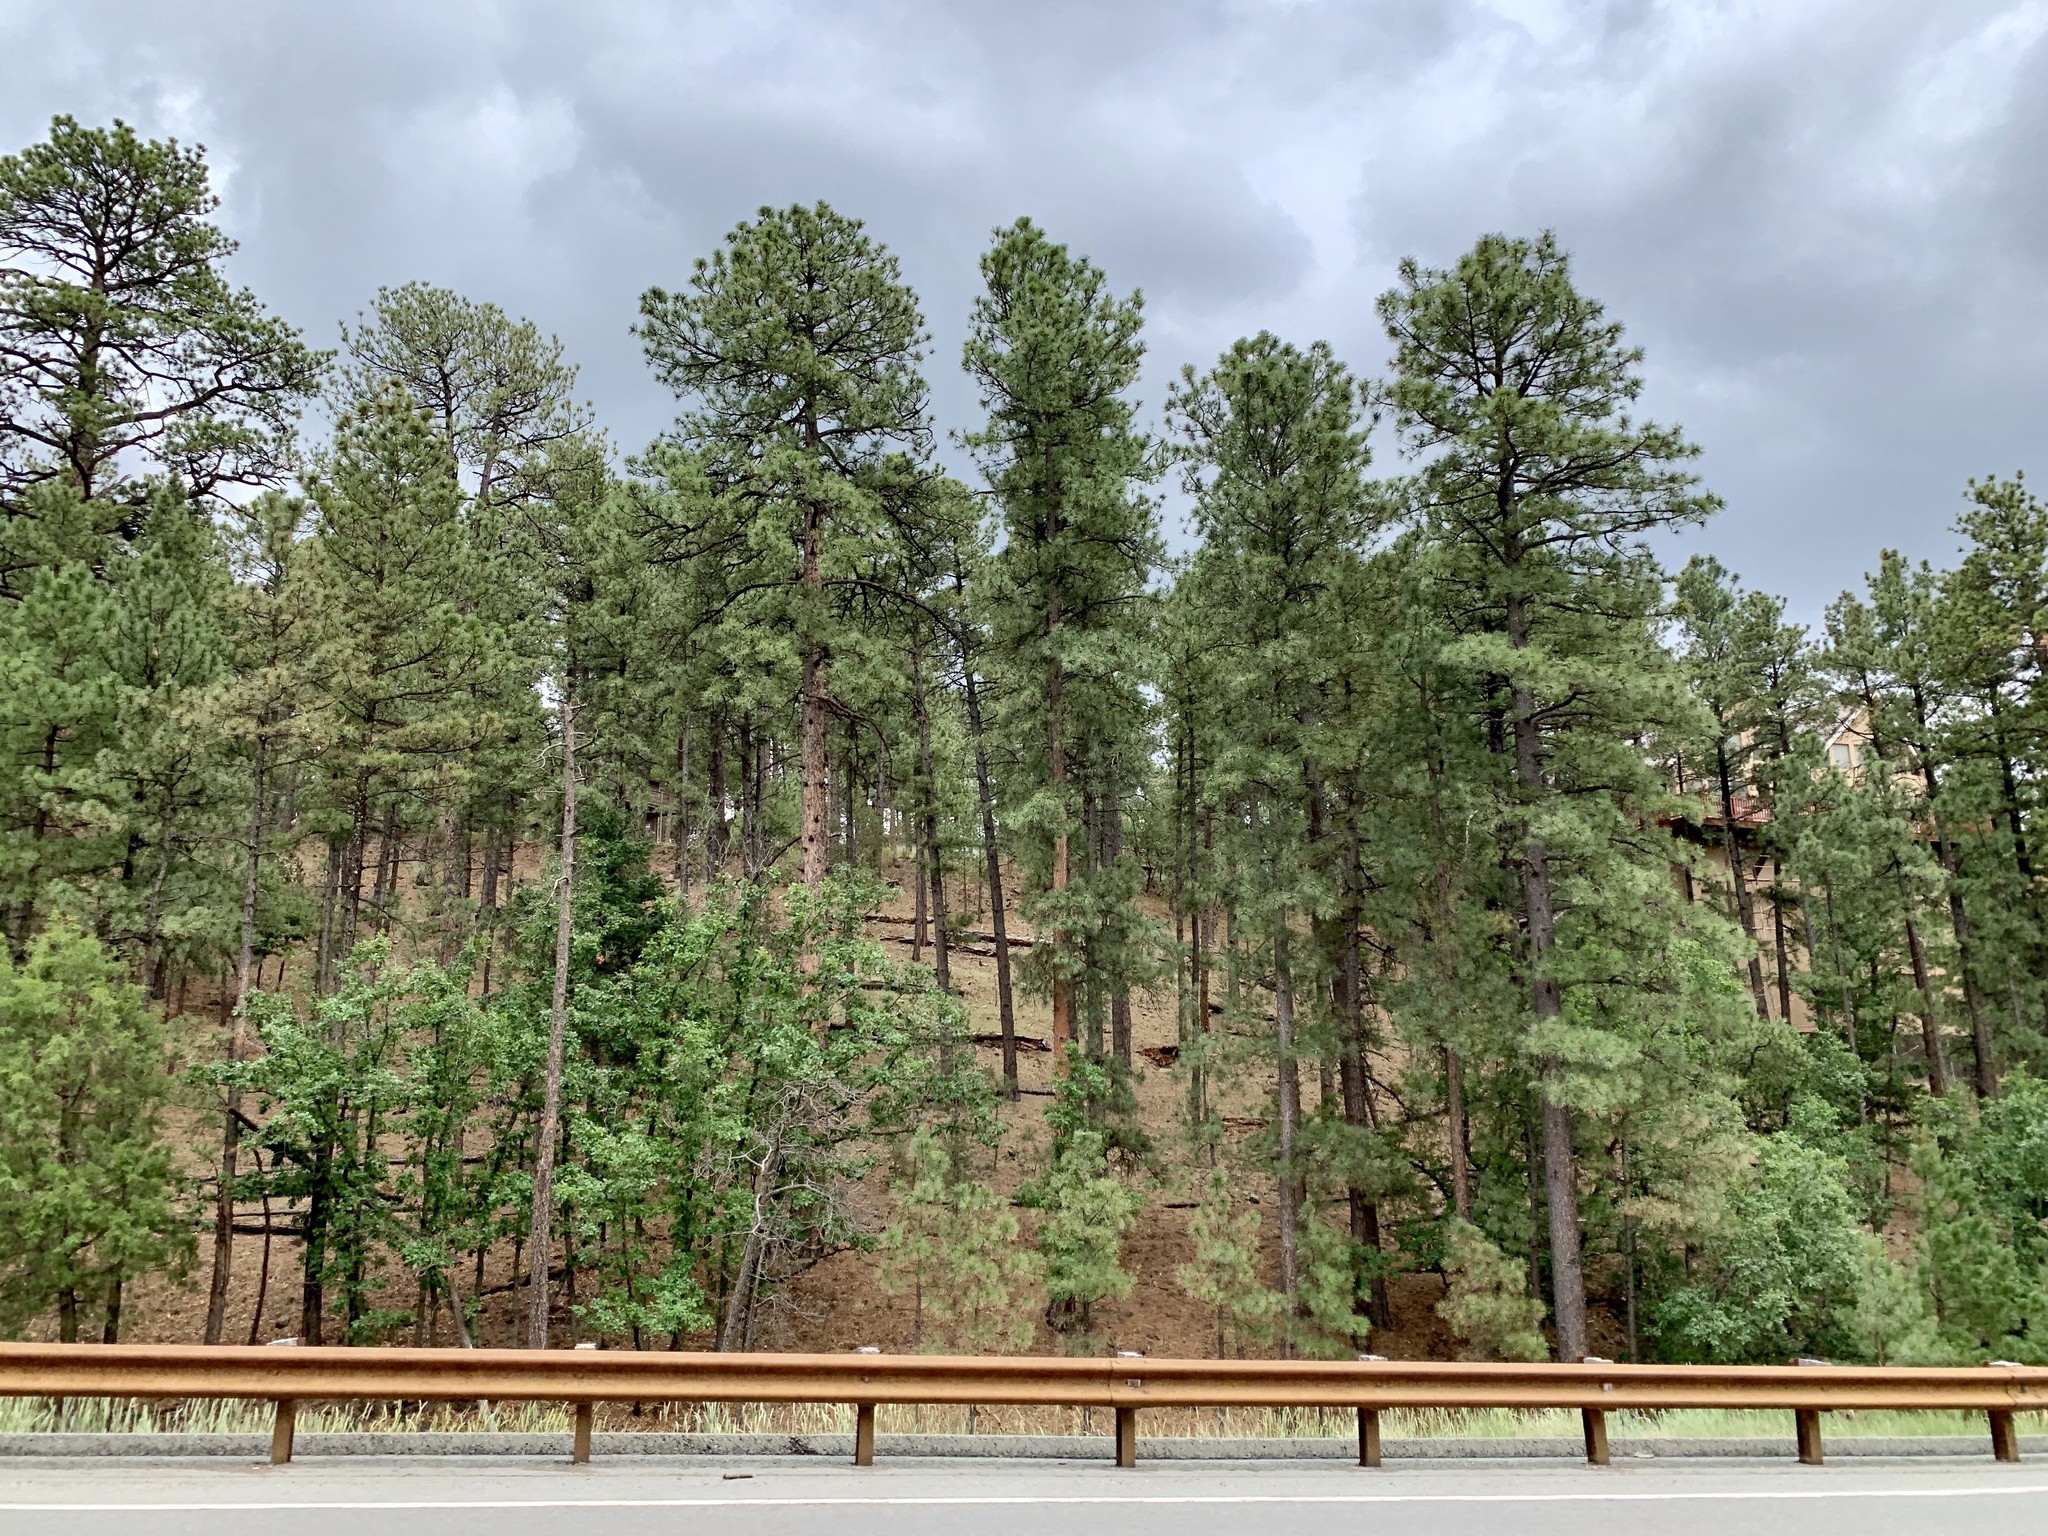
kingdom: Plantae
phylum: Tracheophyta
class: Pinopsida
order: Pinales
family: Pinaceae
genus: Pinus
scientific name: Pinus ponderosa
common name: Western yellow-pine
